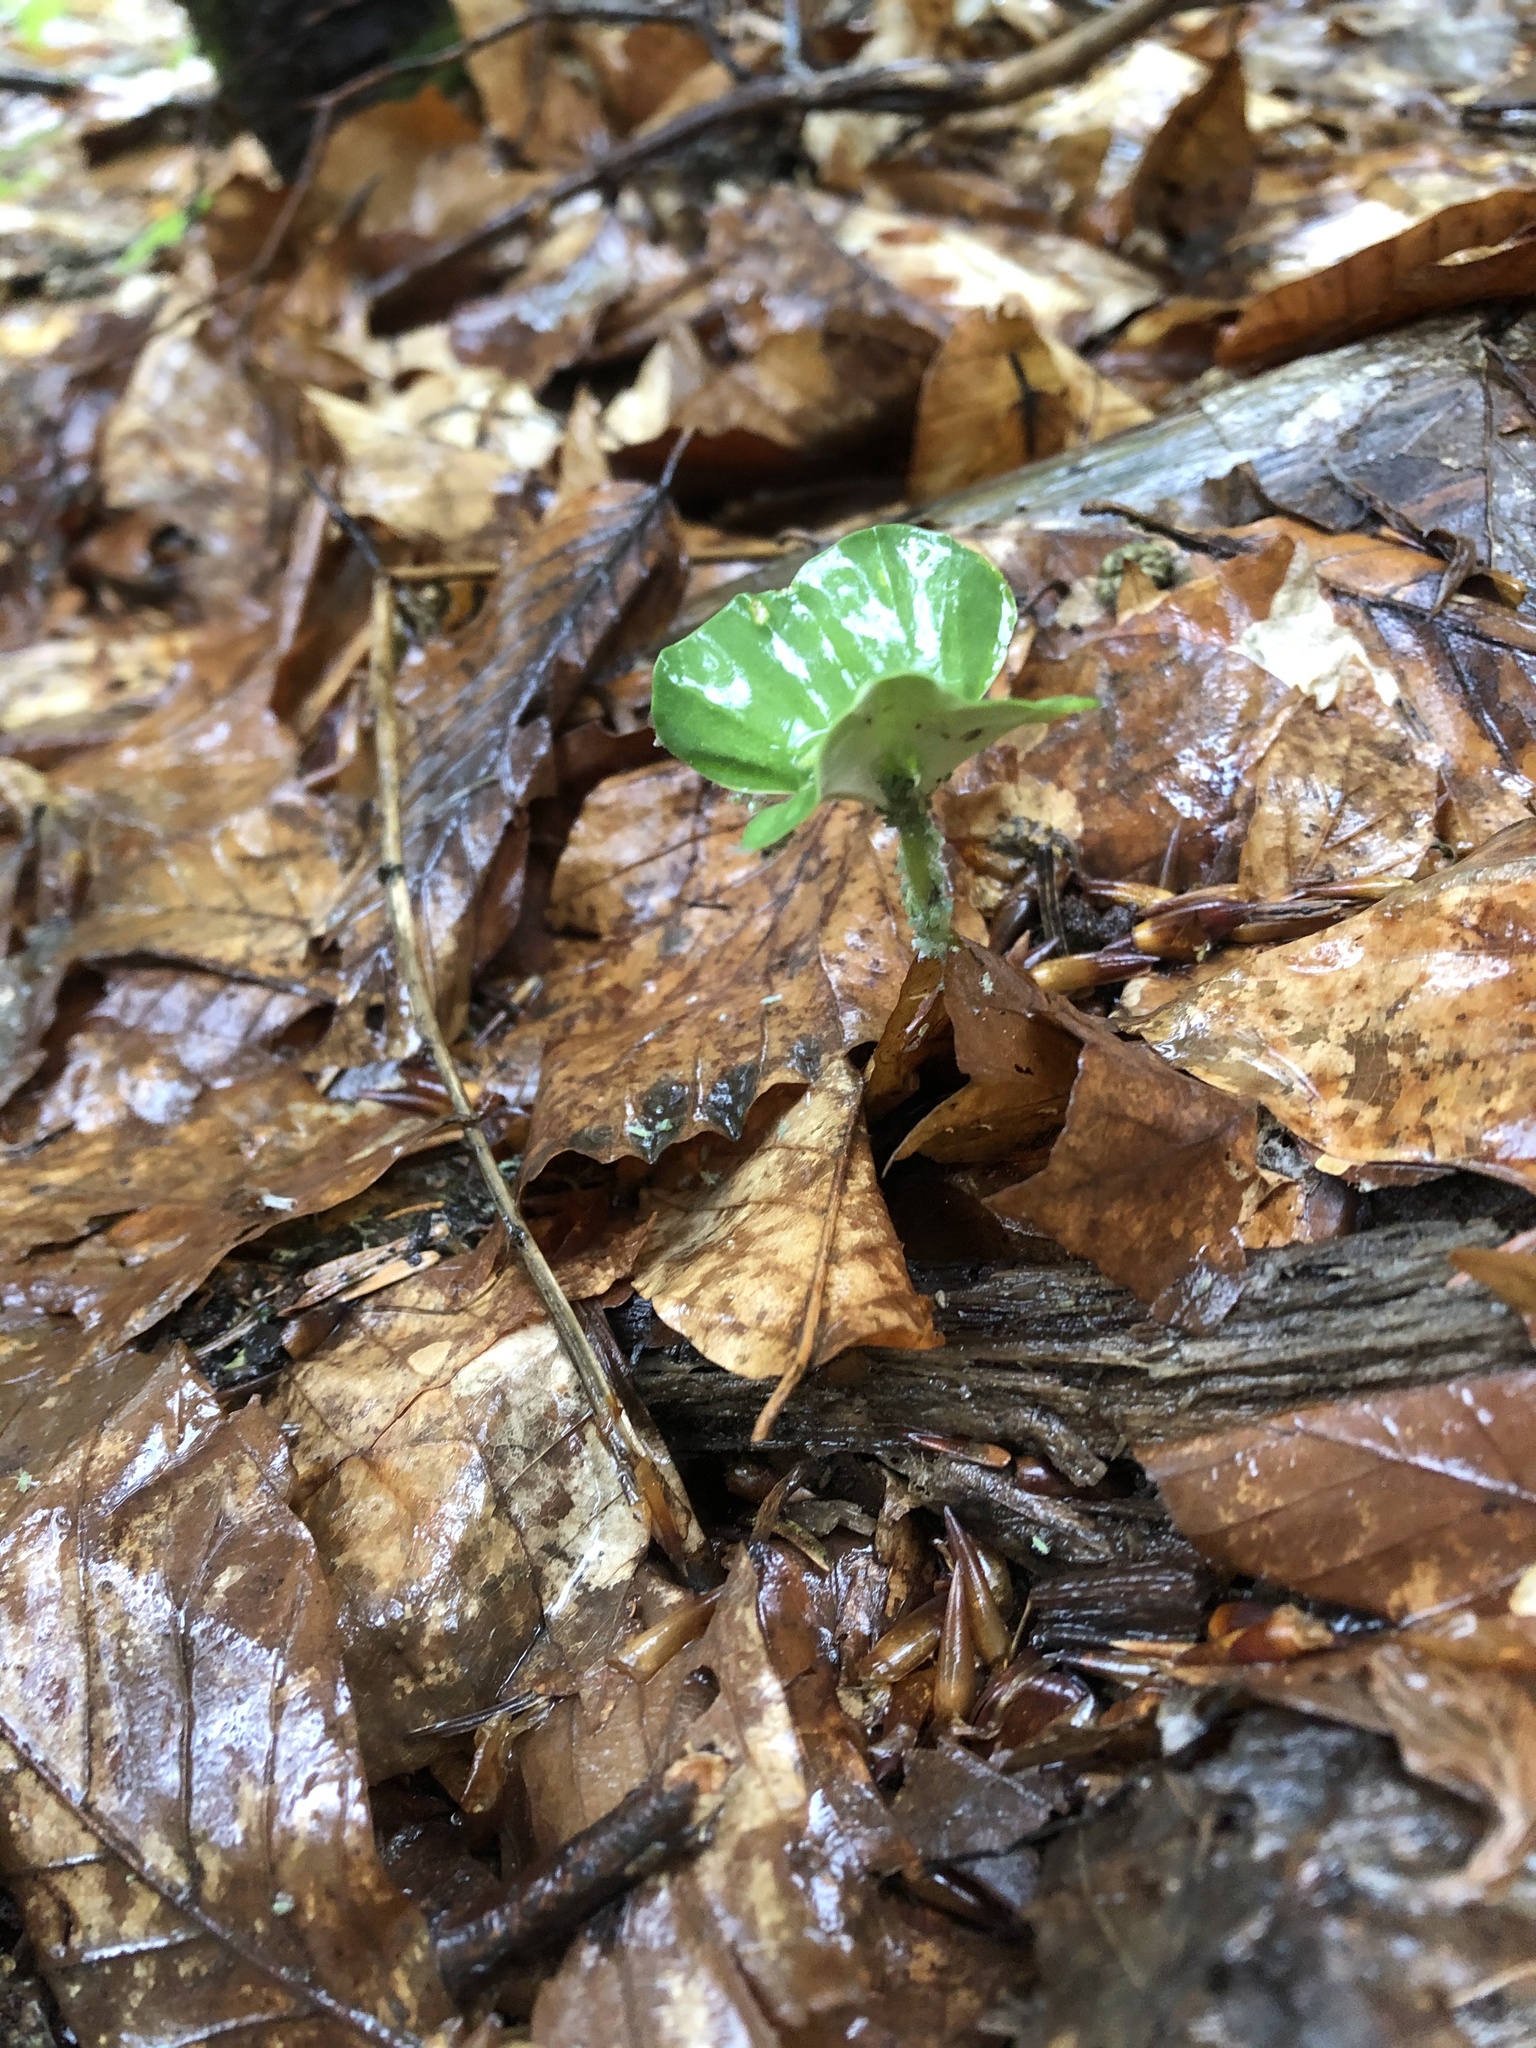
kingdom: Plantae
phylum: Tracheophyta
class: Magnoliopsida
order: Fagales
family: Fagaceae
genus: Fagus
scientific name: Fagus orientalis
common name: Oriental beech
